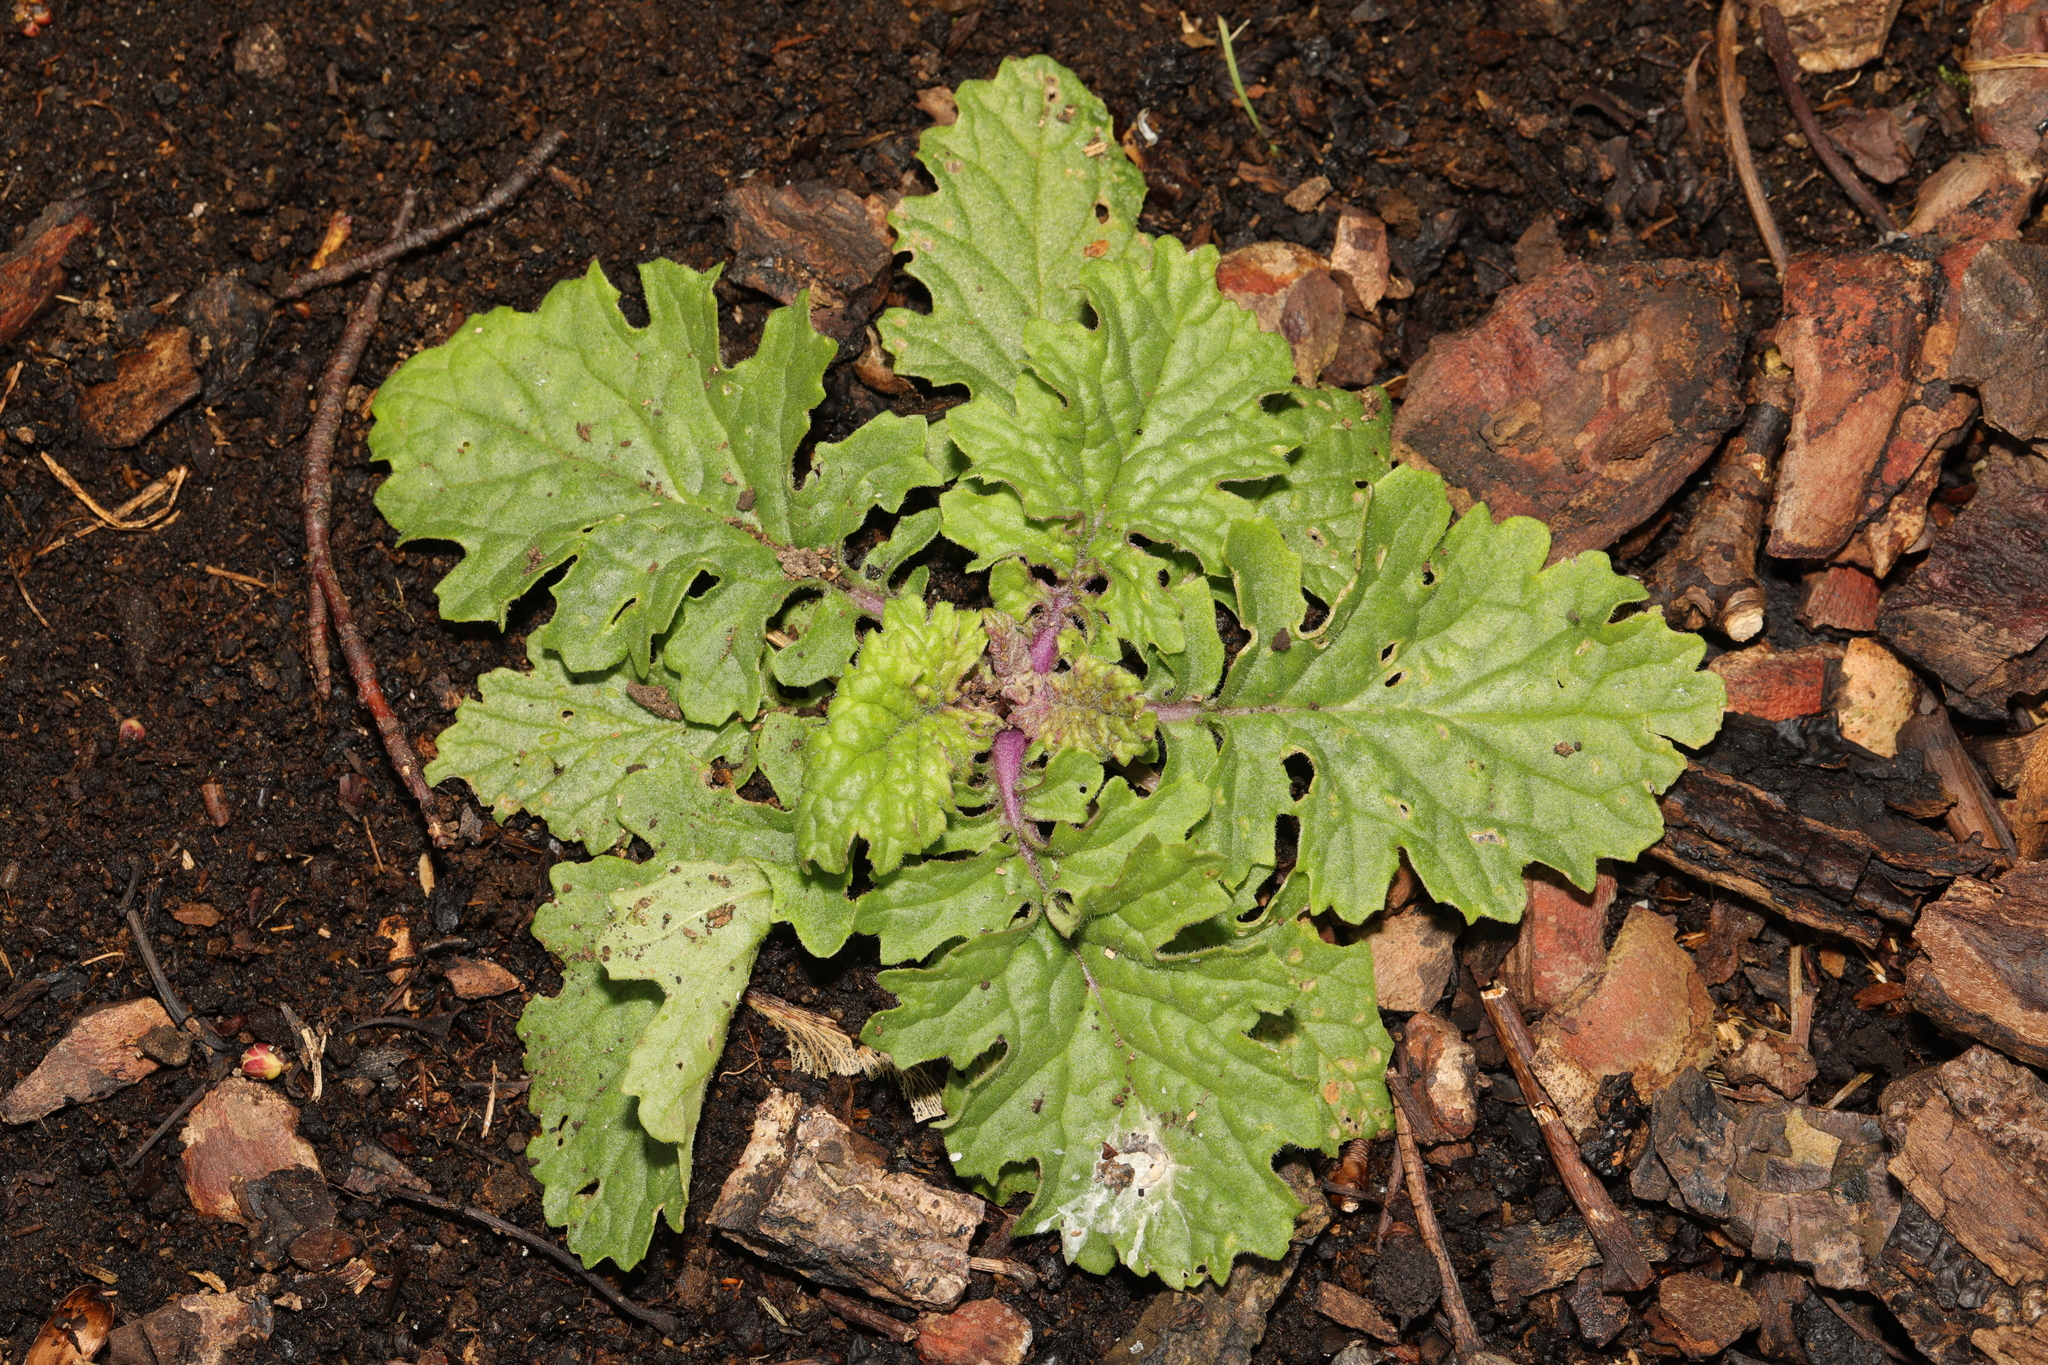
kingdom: Plantae
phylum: Tracheophyta
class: Magnoliopsida
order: Asterales
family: Asteraceae
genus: Jacobaea
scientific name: Jacobaea vulgaris
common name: Stinking willie
